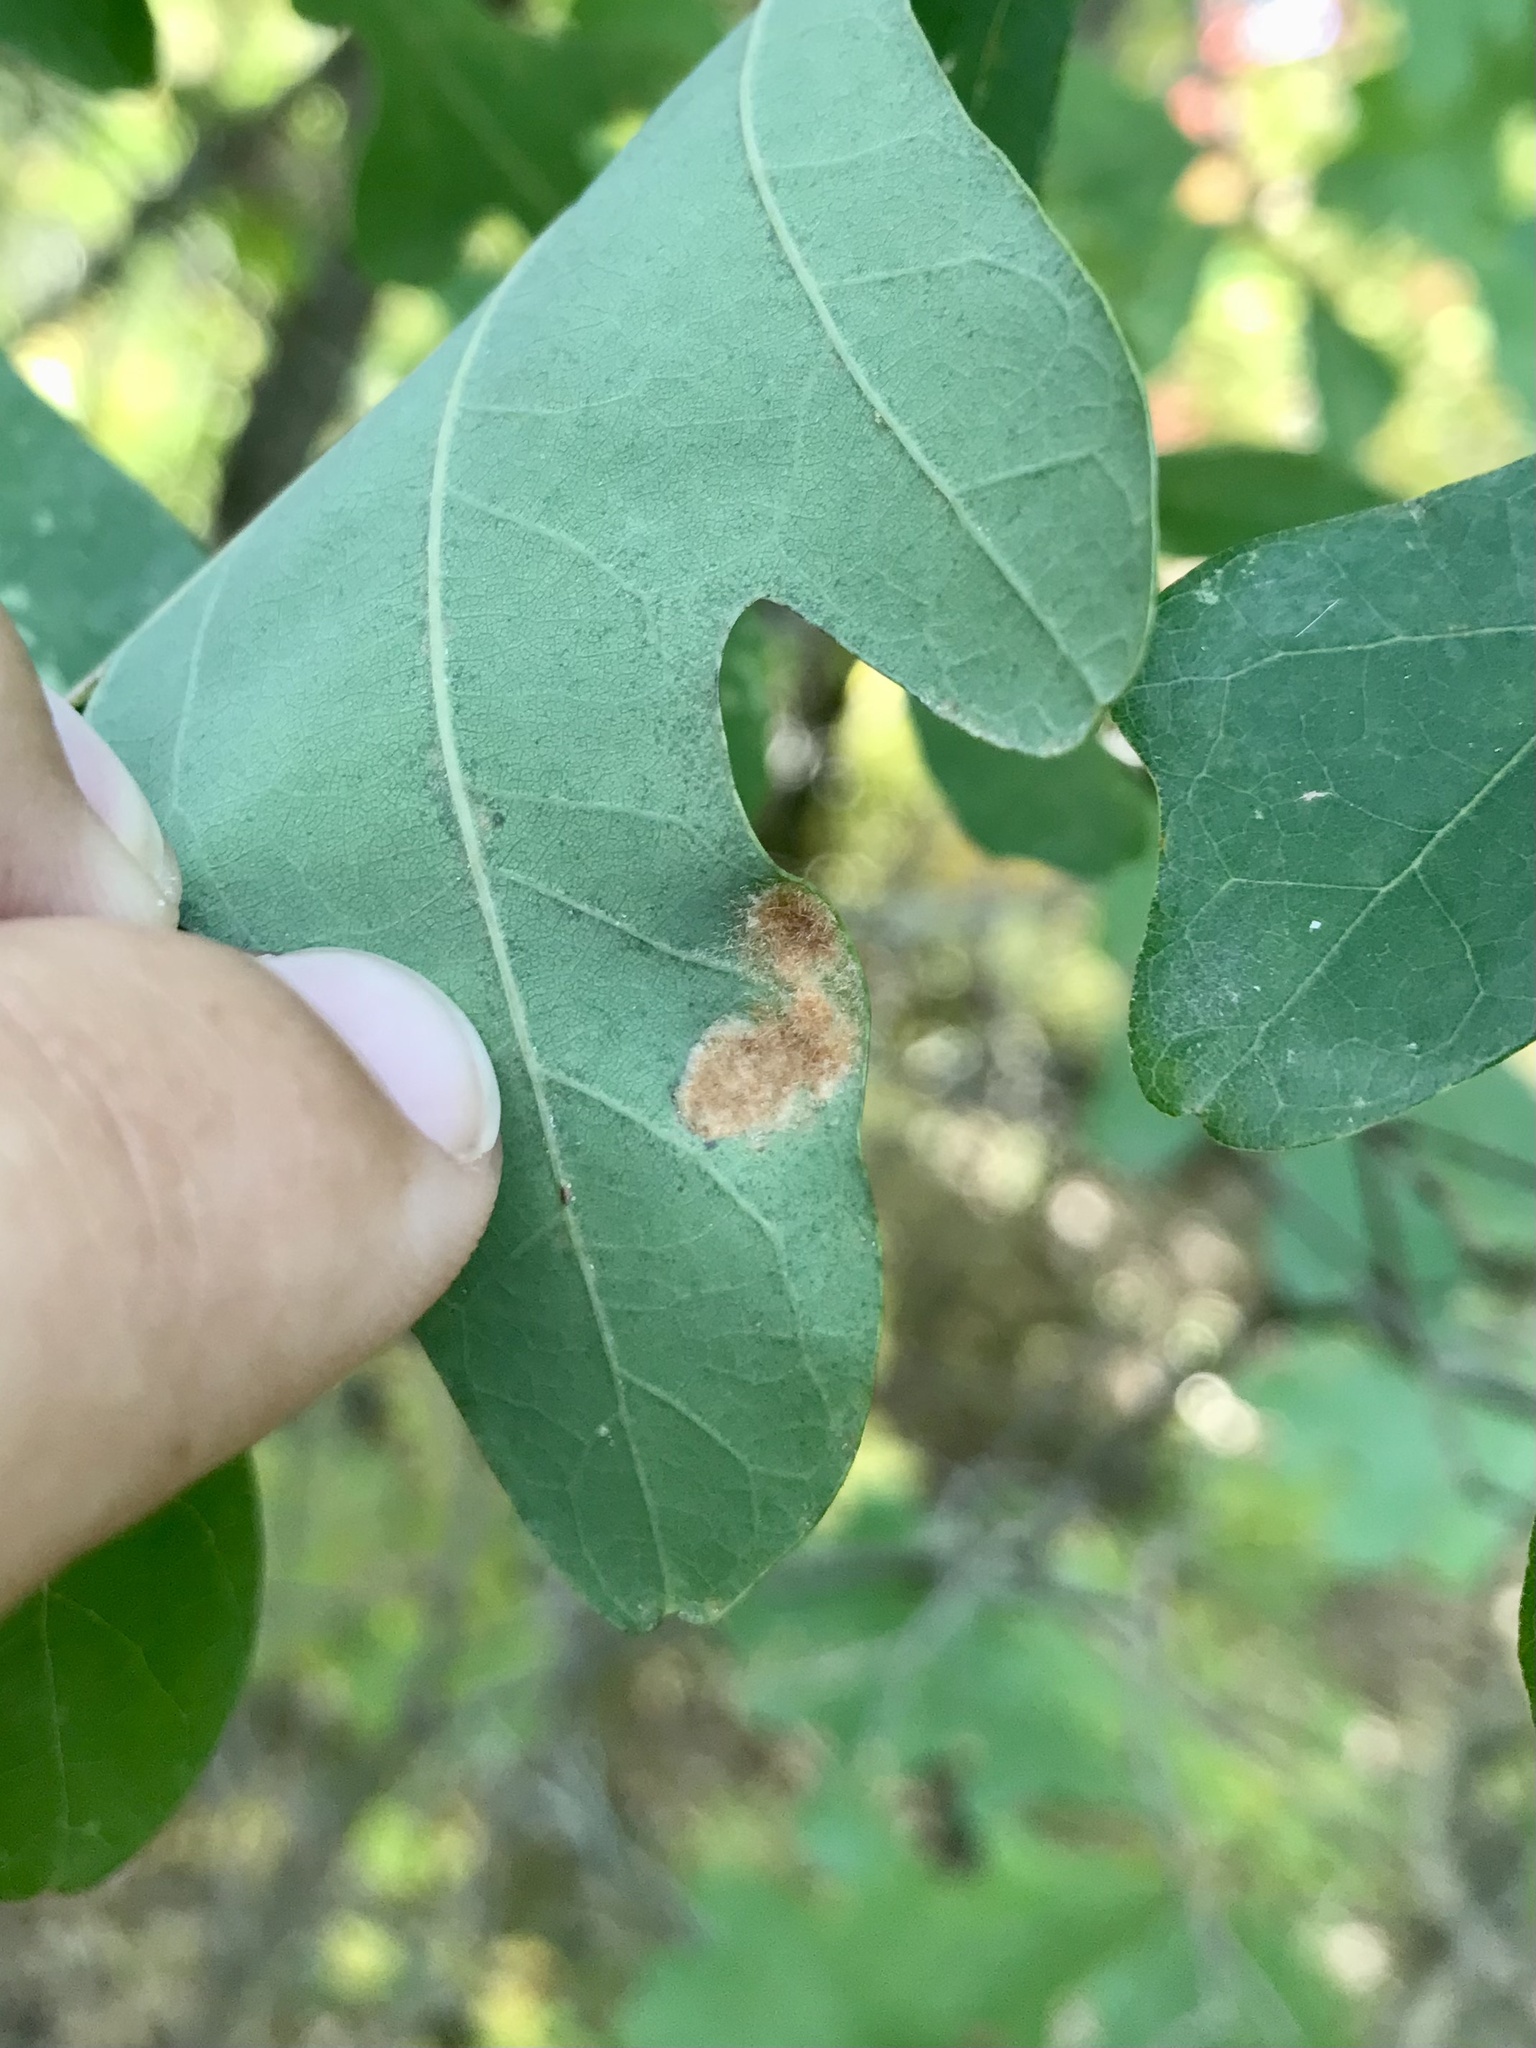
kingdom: Animalia
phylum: Arthropoda
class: Arachnida
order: Trombidiformes
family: Eriophyidae
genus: Aceria
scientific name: Aceria
